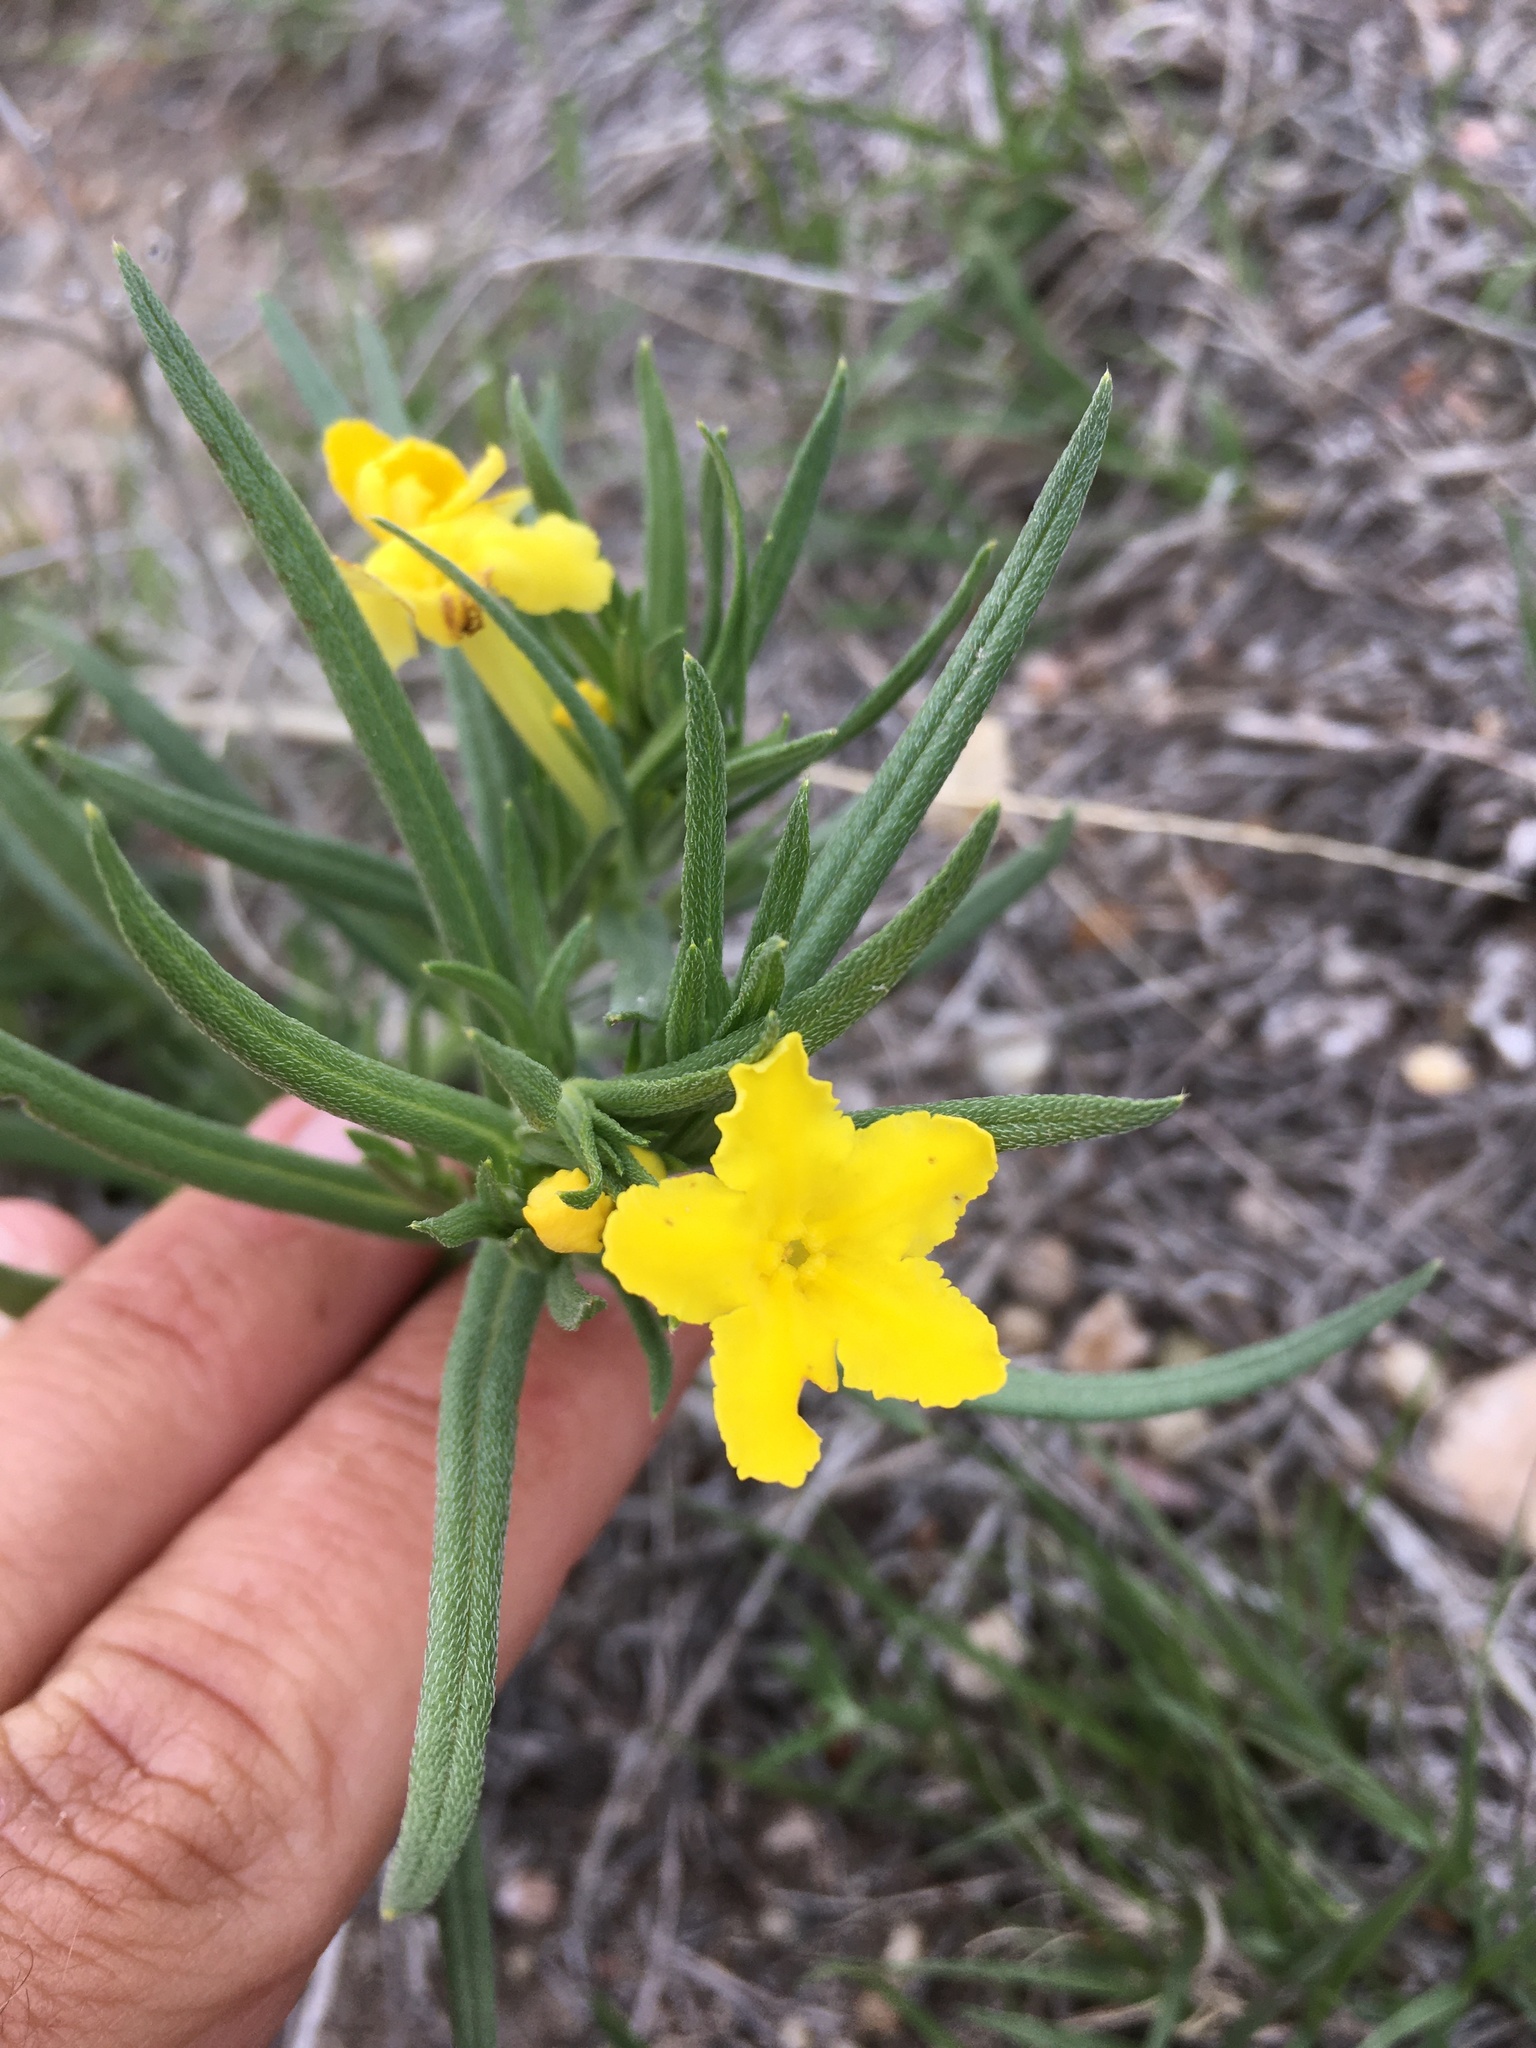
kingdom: Plantae
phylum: Tracheophyta
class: Magnoliopsida
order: Boraginales
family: Boraginaceae
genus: Lithospermum
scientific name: Lithospermum incisum
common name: Fringed gromwell
